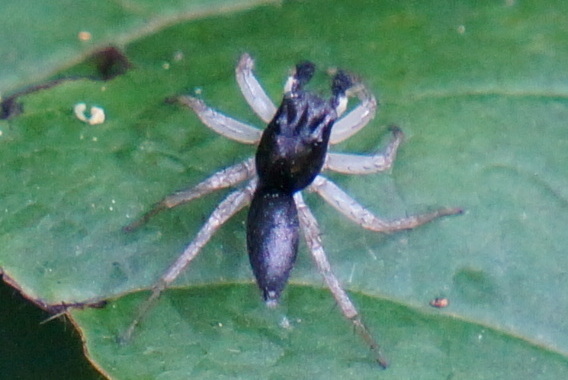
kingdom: Animalia
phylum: Arthropoda
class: Arachnida
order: Araneae
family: Salticidae
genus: Maevia
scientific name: Maevia inclemens
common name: Dimorphic jumper
